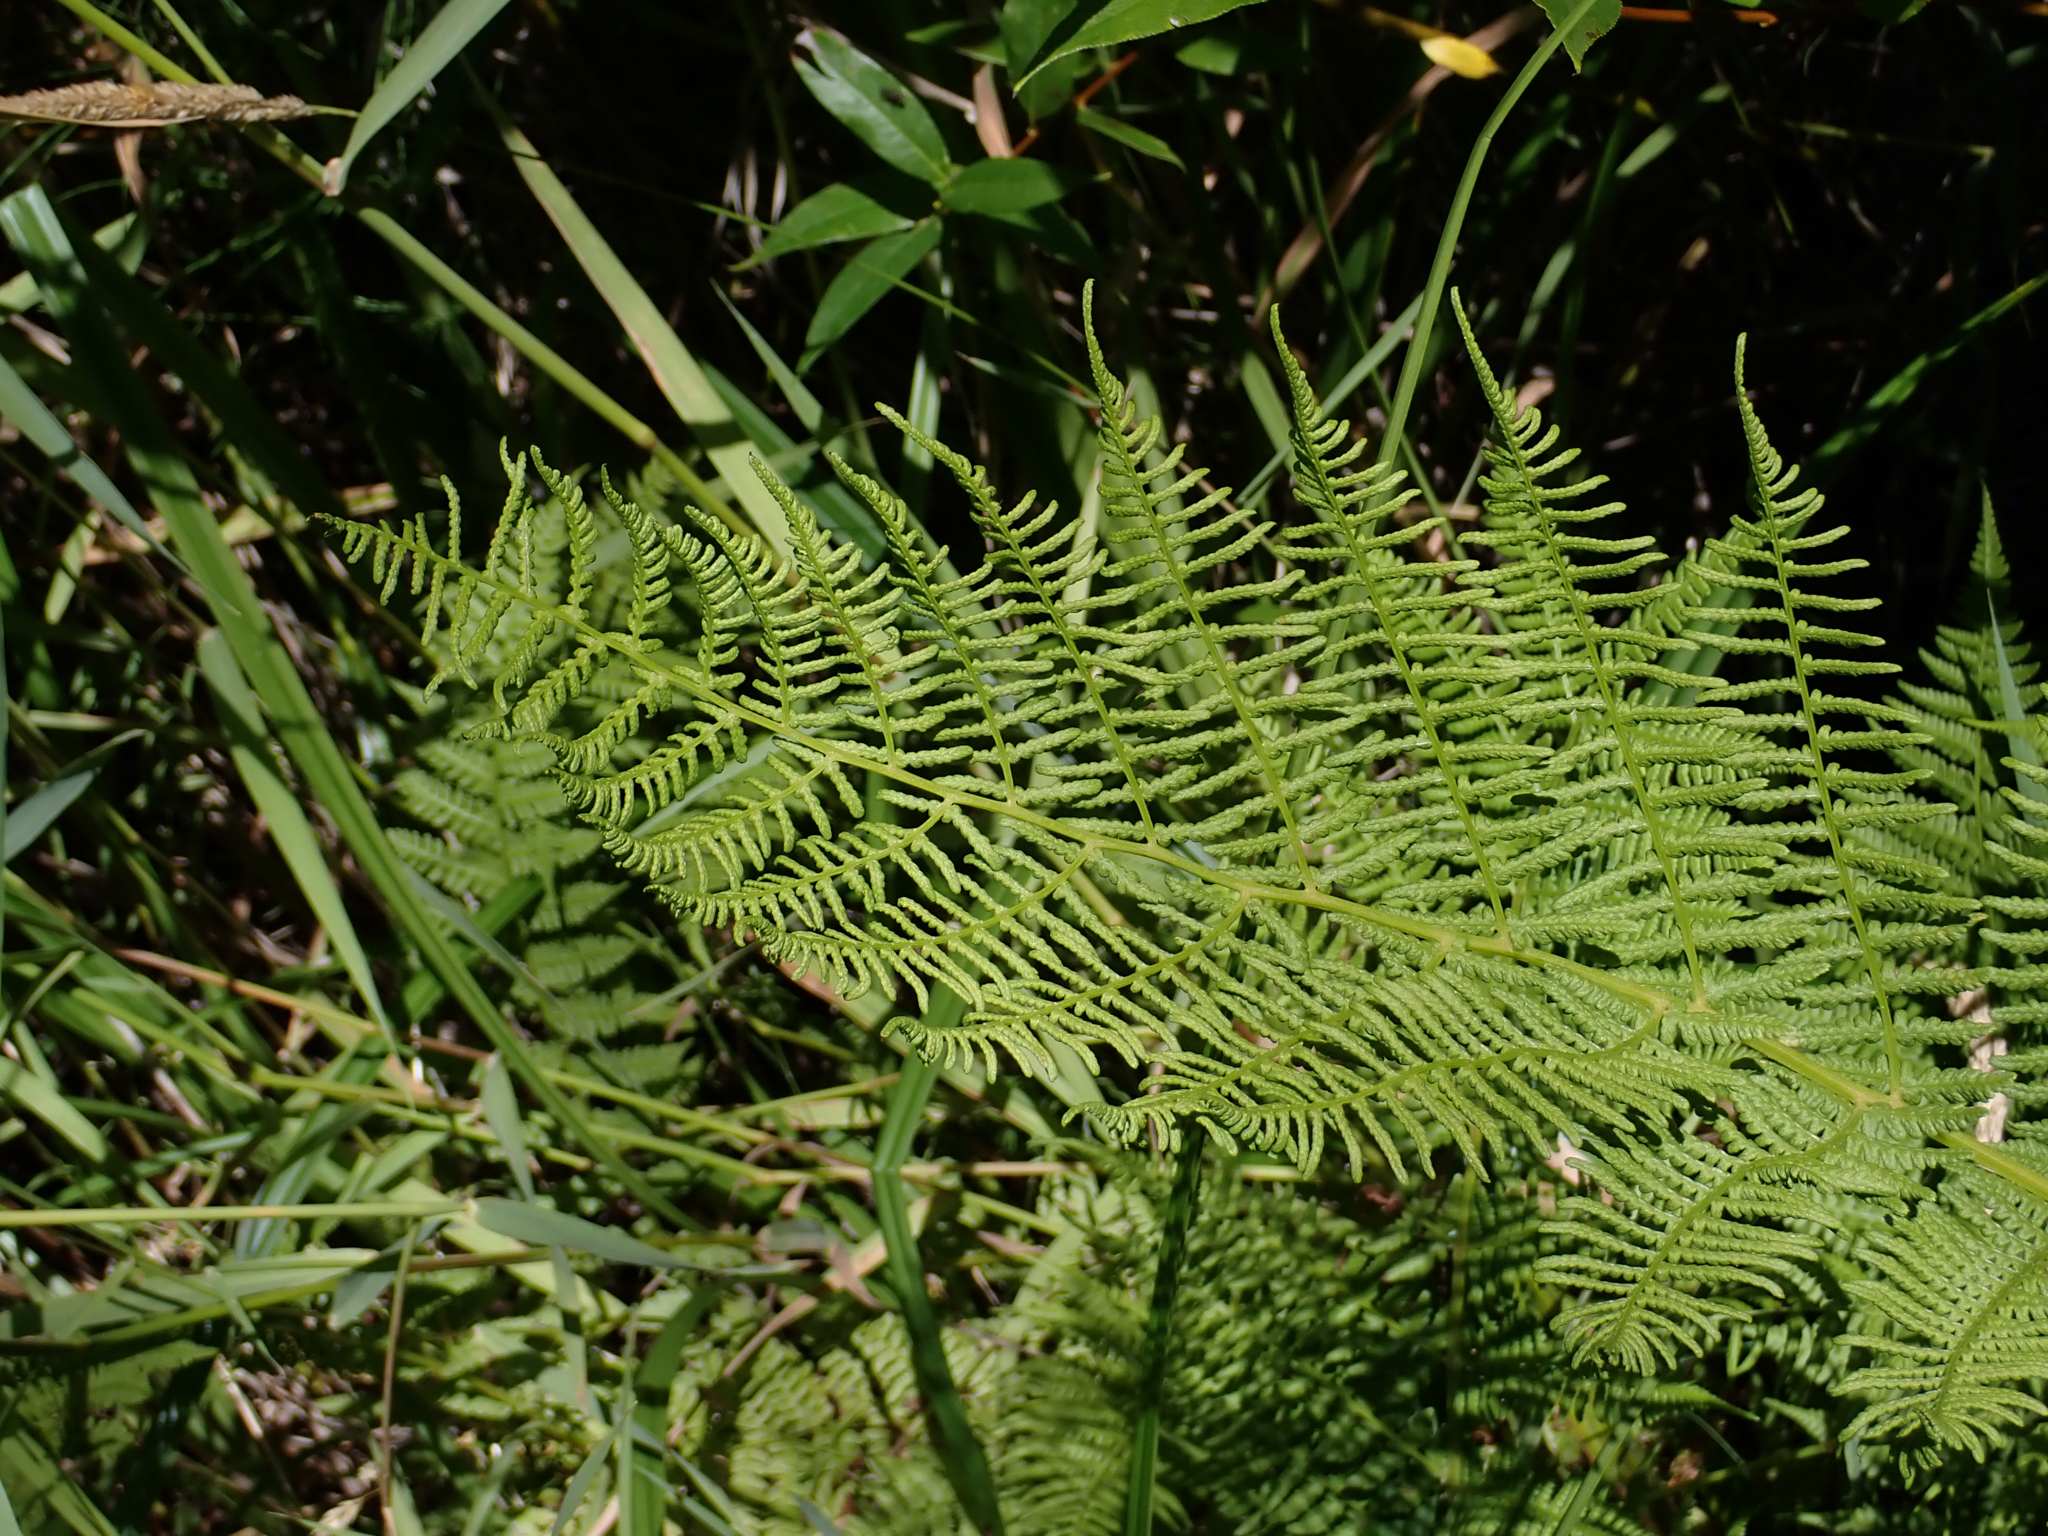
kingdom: Plantae
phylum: Tracheophyta
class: Polypodiopsida
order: Polypodiales
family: Athyriaceae
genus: Athyrium
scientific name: Athyrium filix-femina
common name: Lady fern
